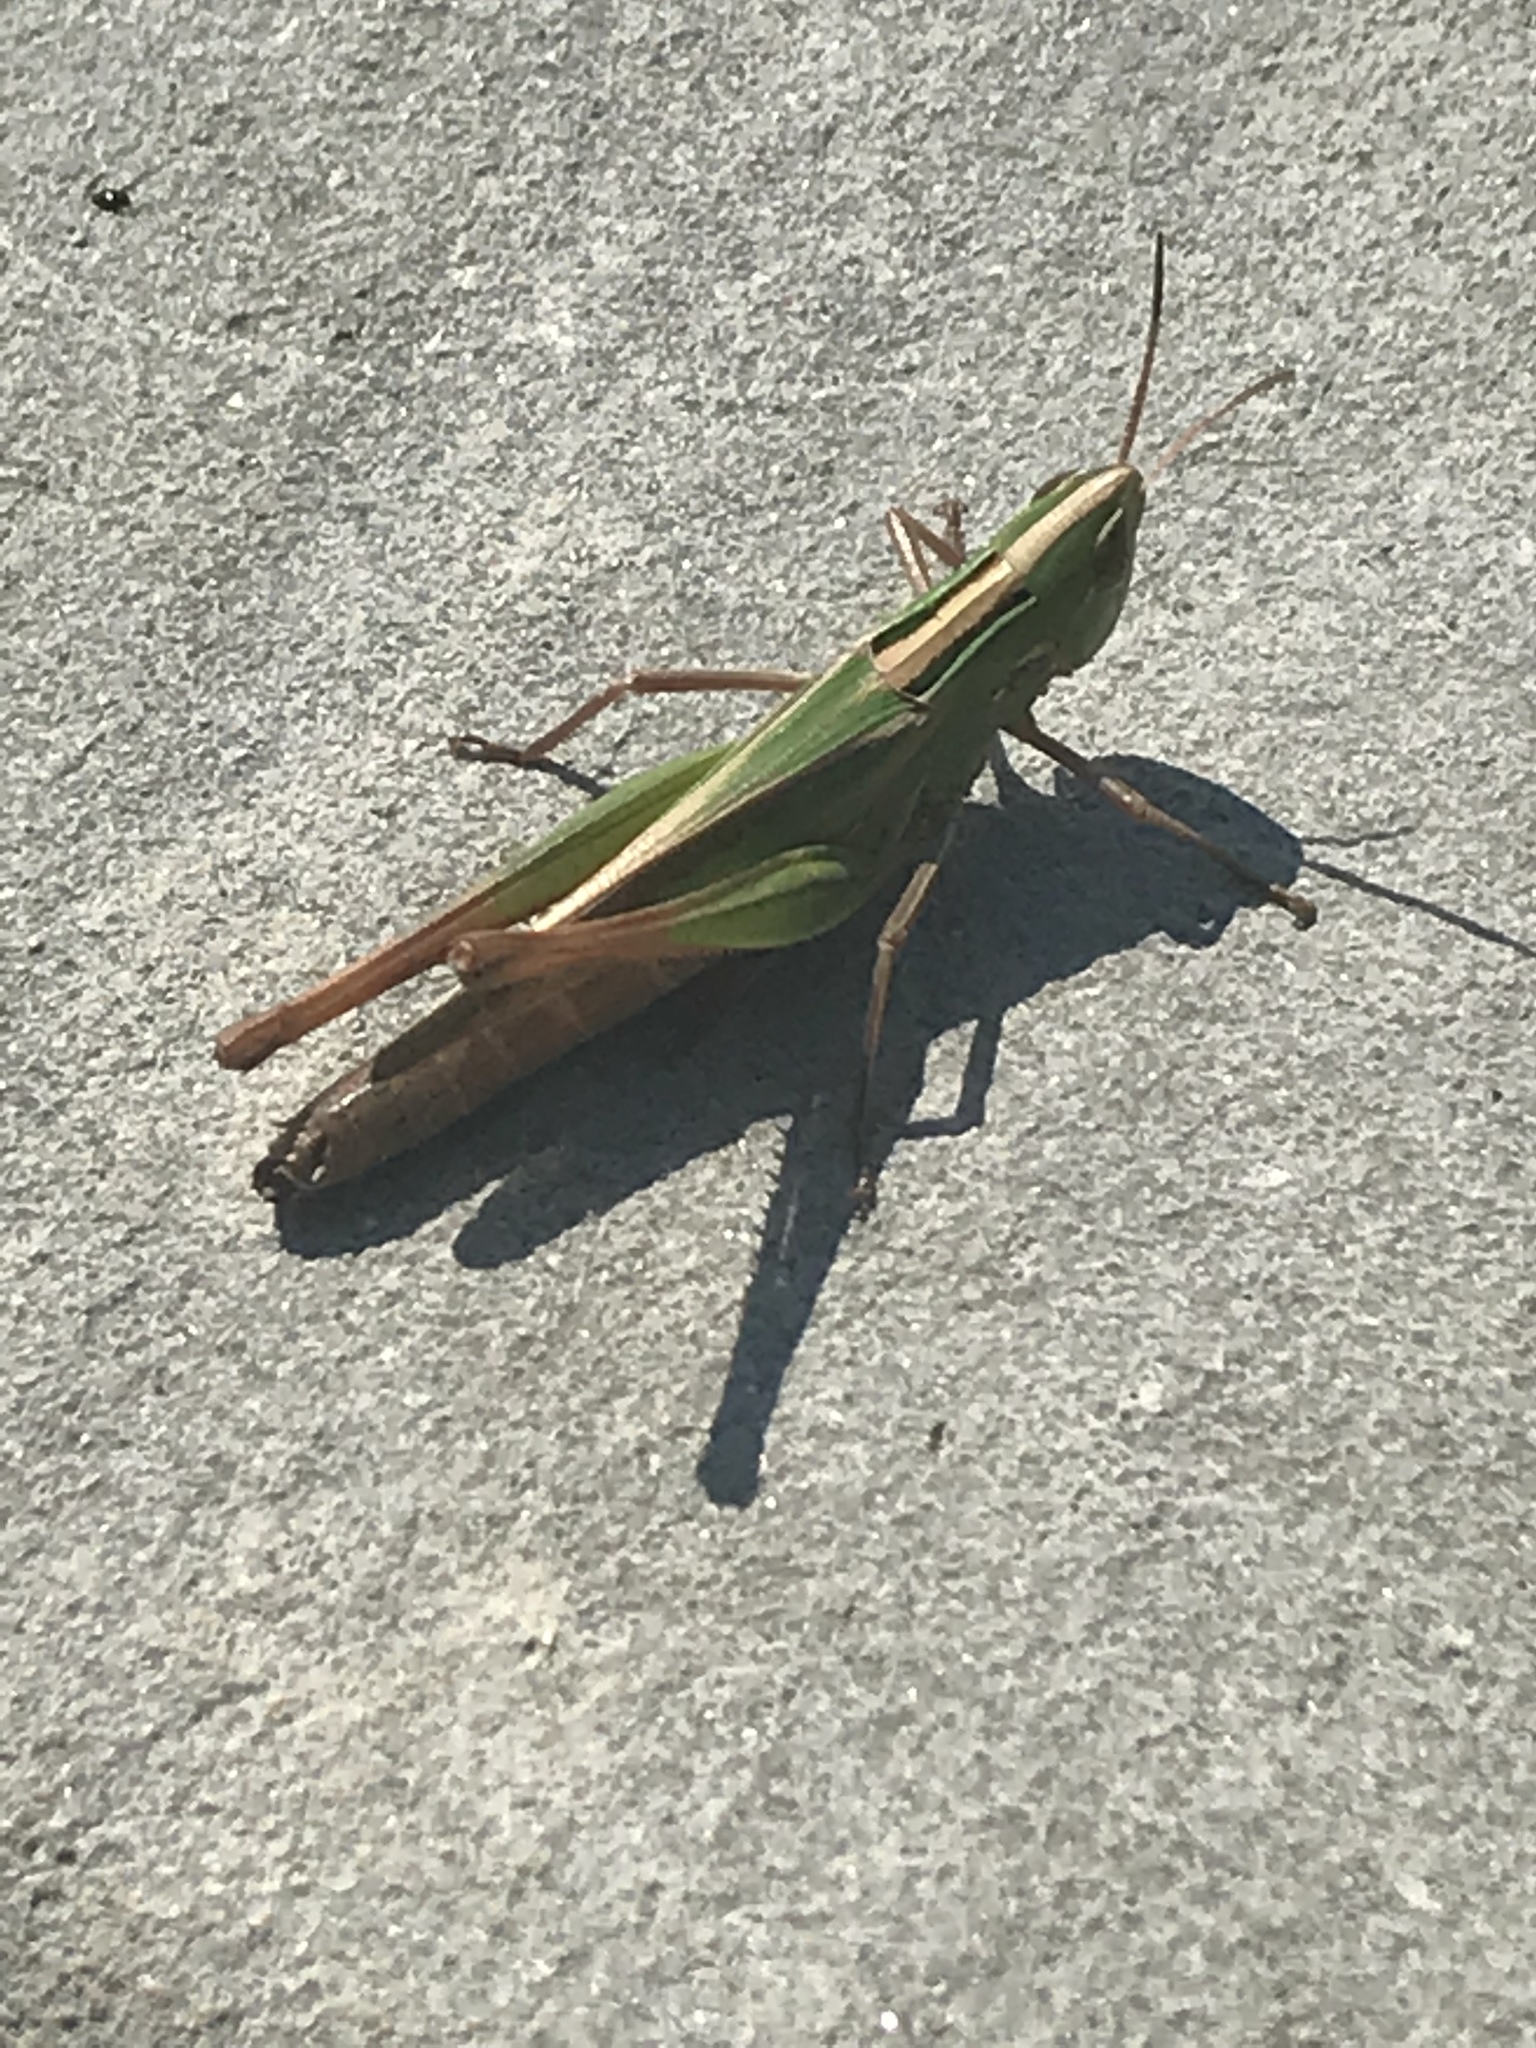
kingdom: Animalia
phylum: Arthropoda
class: Insecta
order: Orthoptera
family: Acrididae
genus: Syrbula
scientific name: Syrbula admirabilis
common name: Handsome grasshopper
